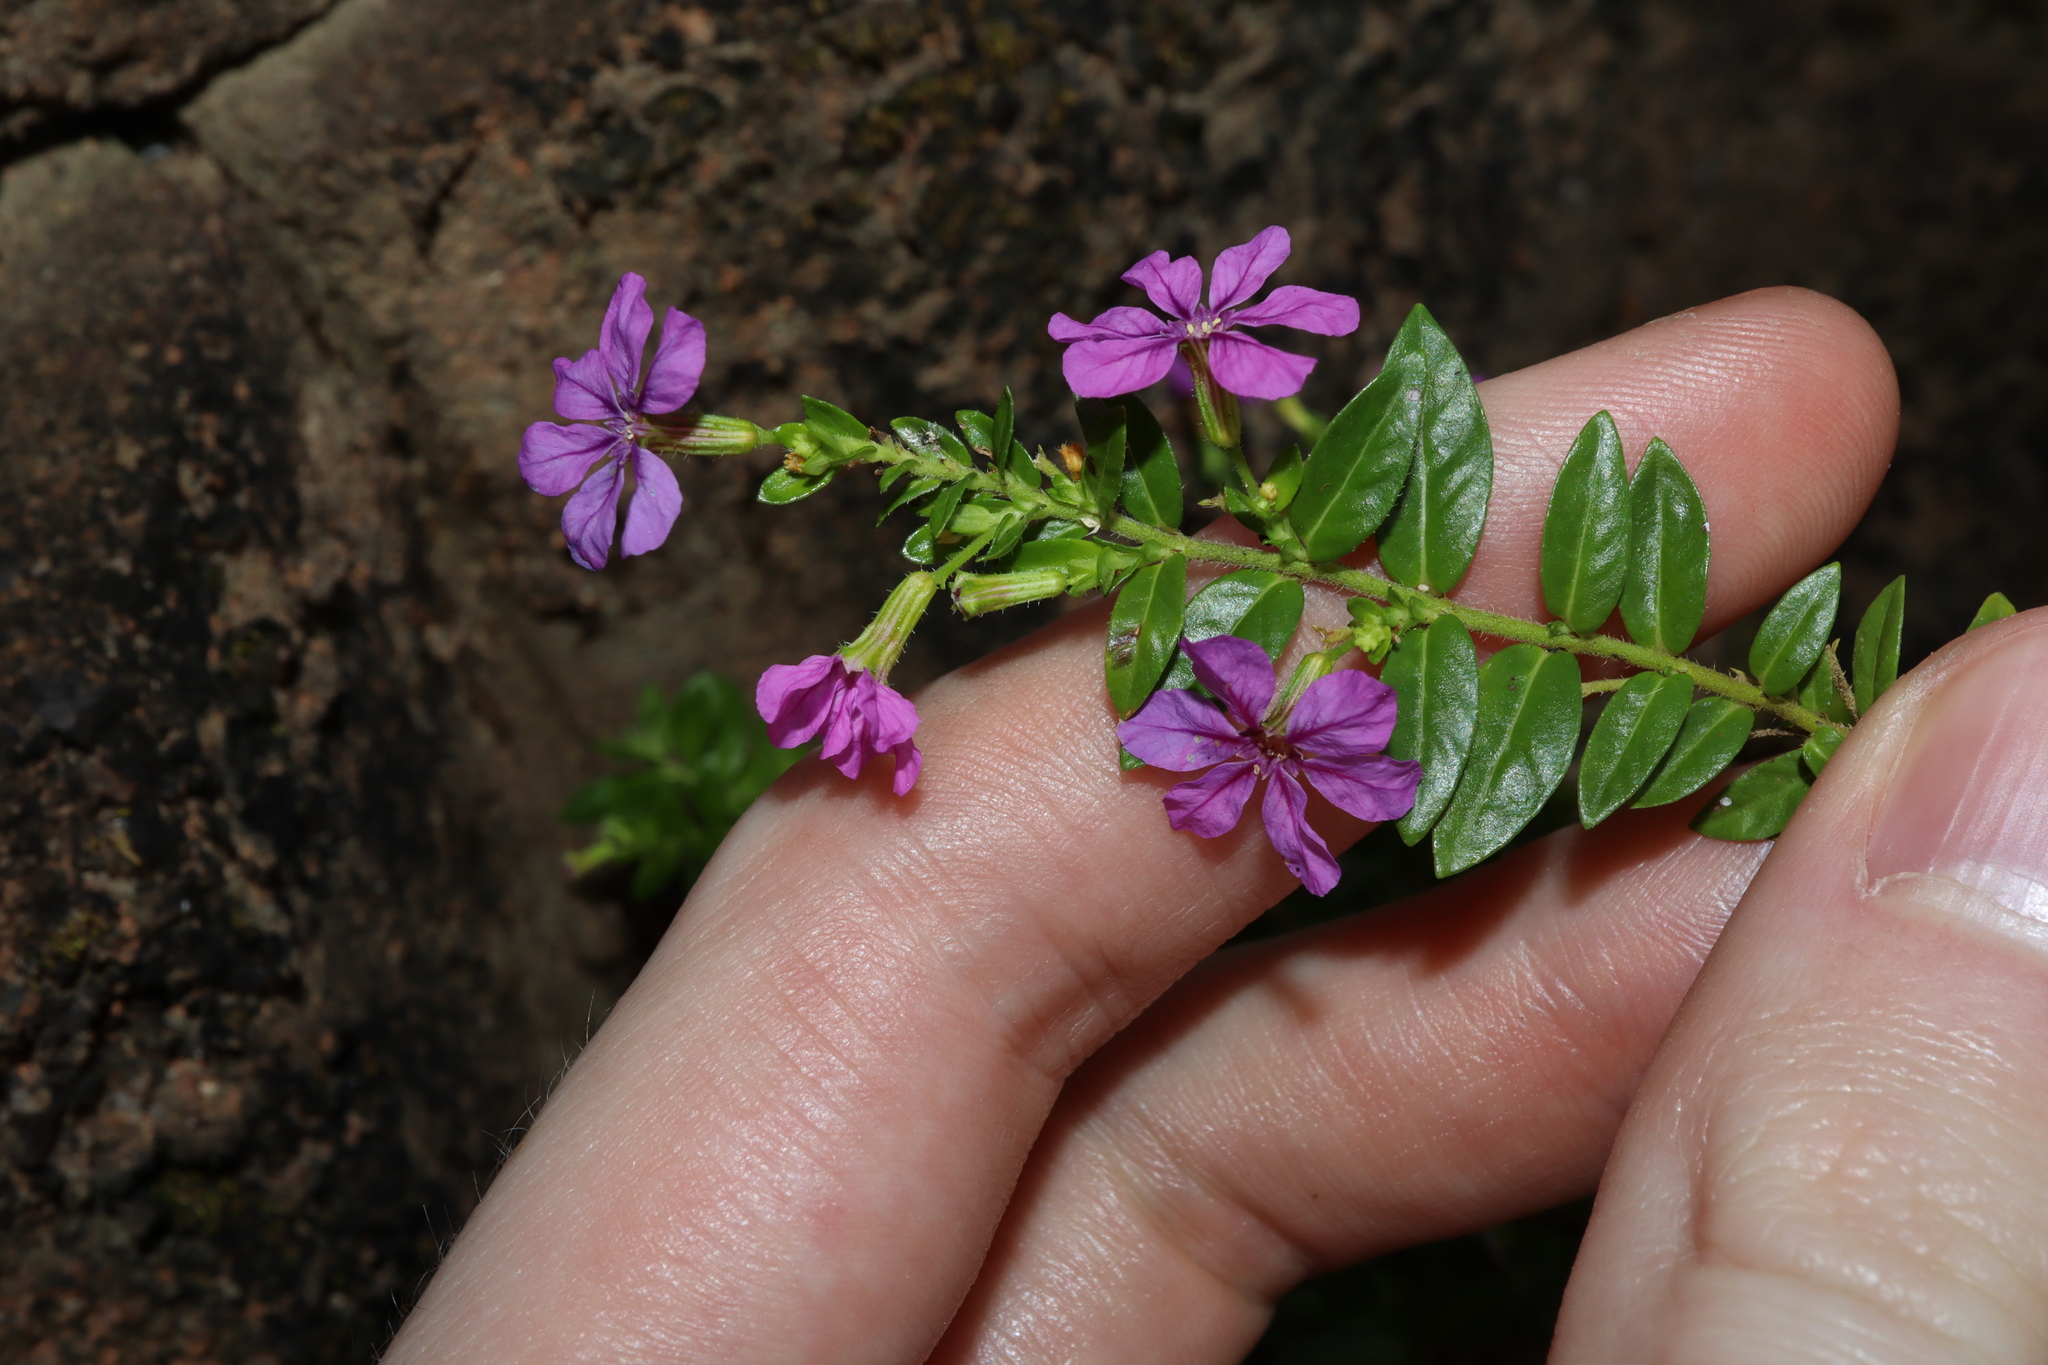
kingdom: Plantae
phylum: Tracheophyta
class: Magnoliopsida
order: Myrtales
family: Lythraceae
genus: Cuphea
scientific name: Cuphea hyssopifolia
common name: False heather
